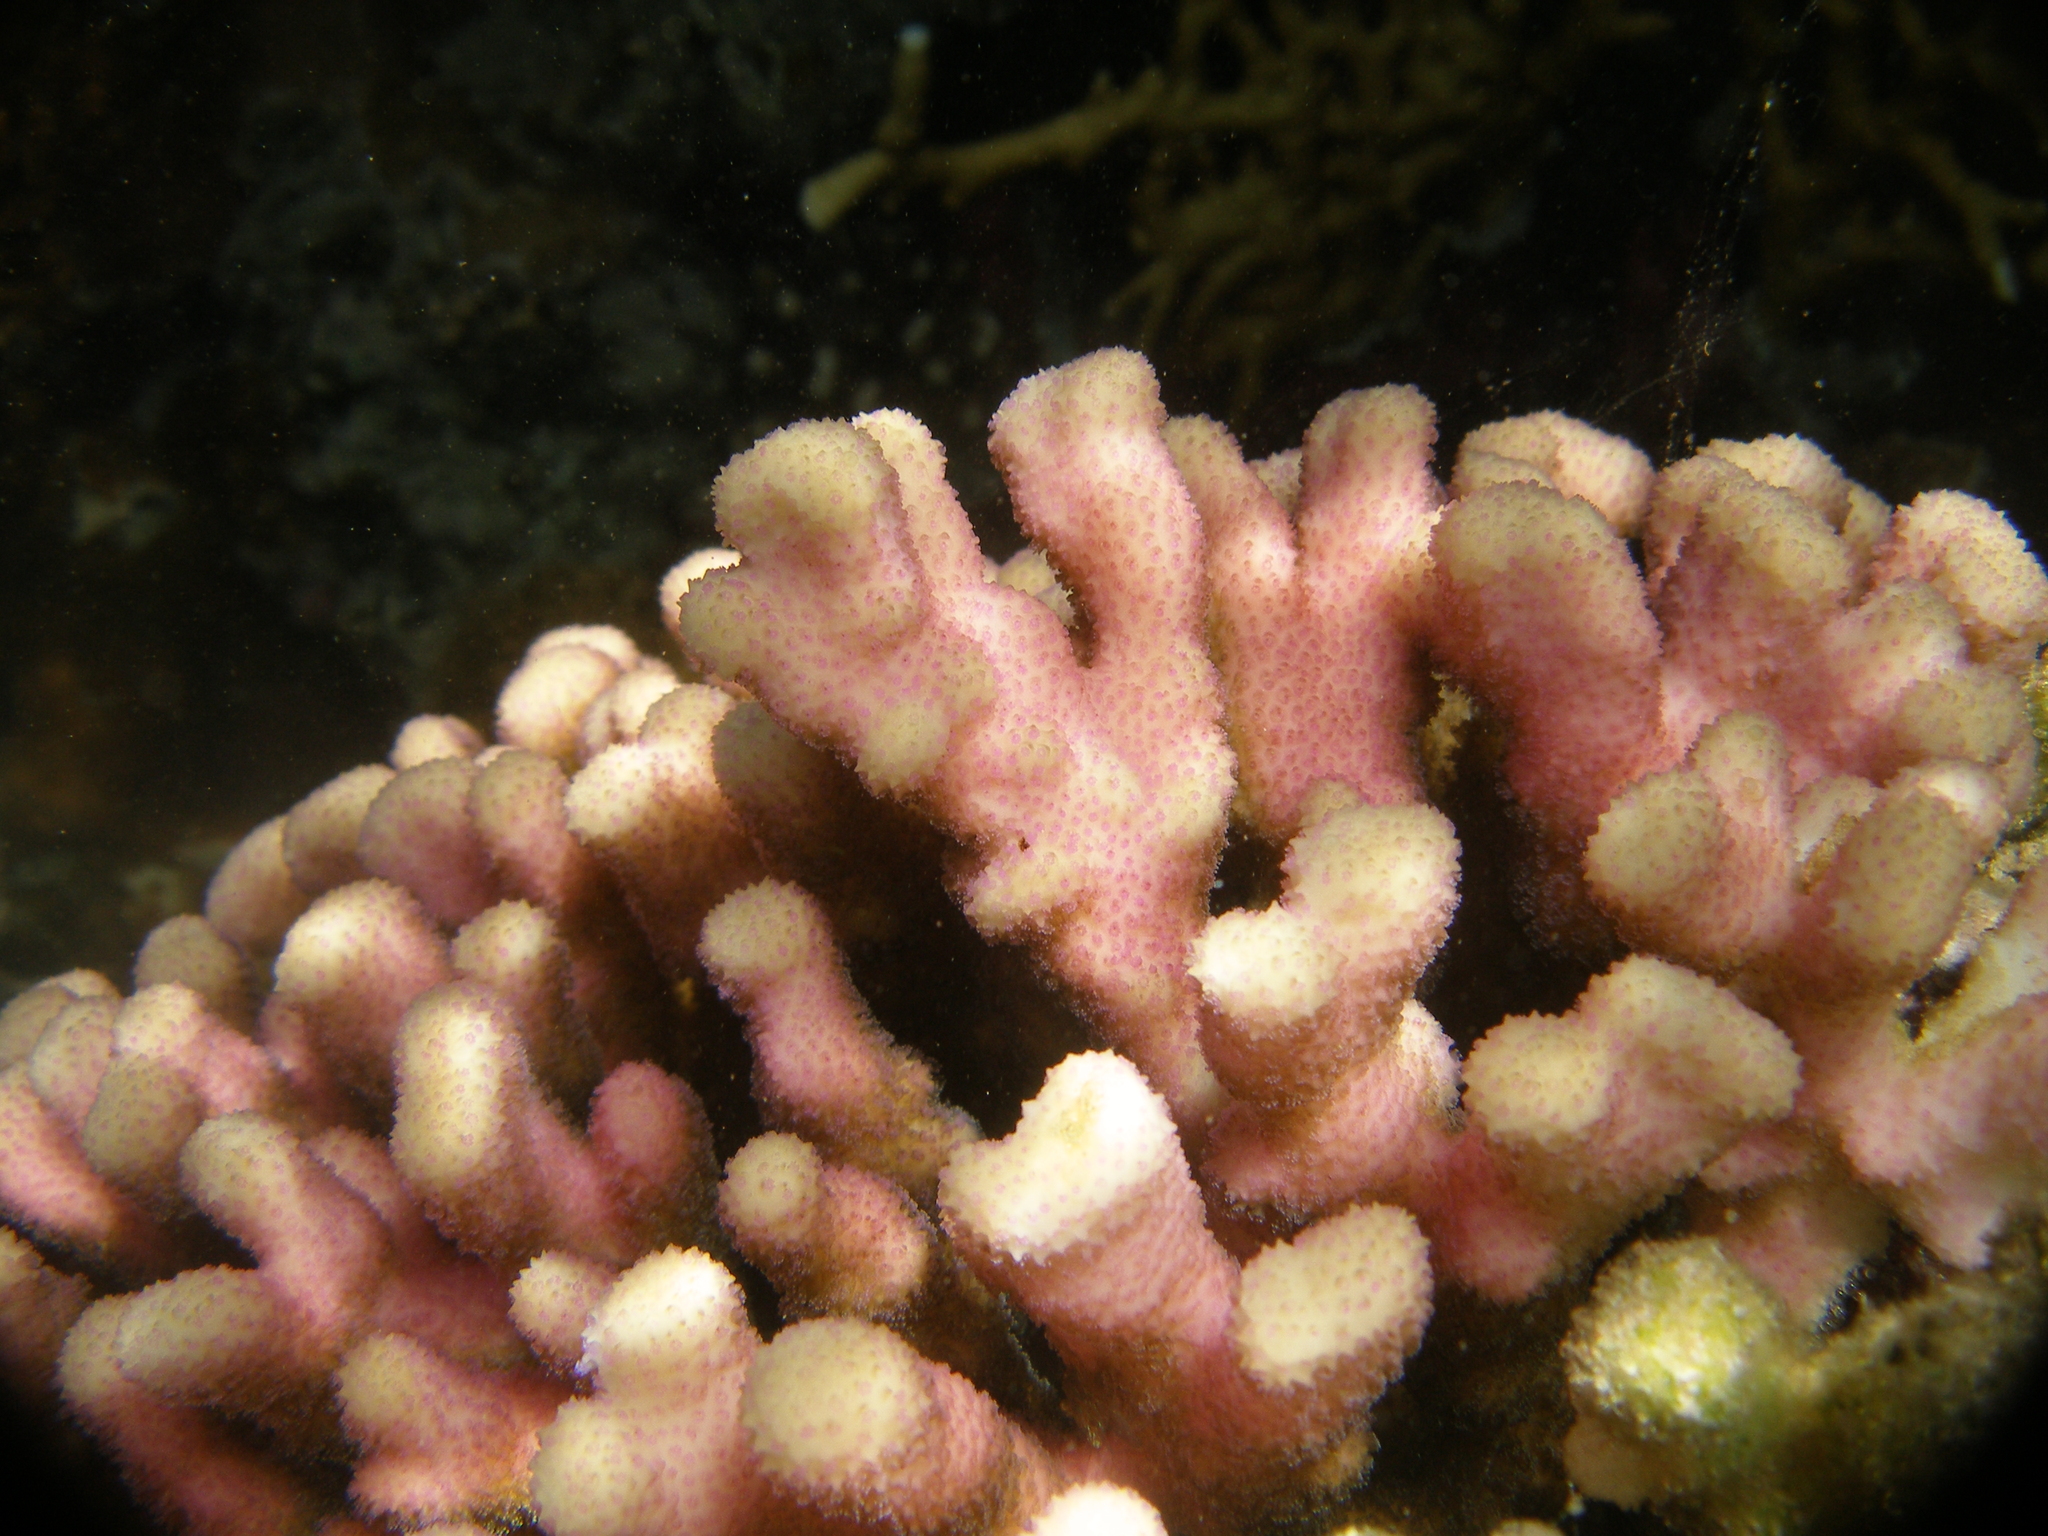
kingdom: Animalia
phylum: Cnidaria
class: Anthozoa
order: Scleractinia
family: Pocilloporidae
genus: Stylophora
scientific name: Stylophora subseriata
